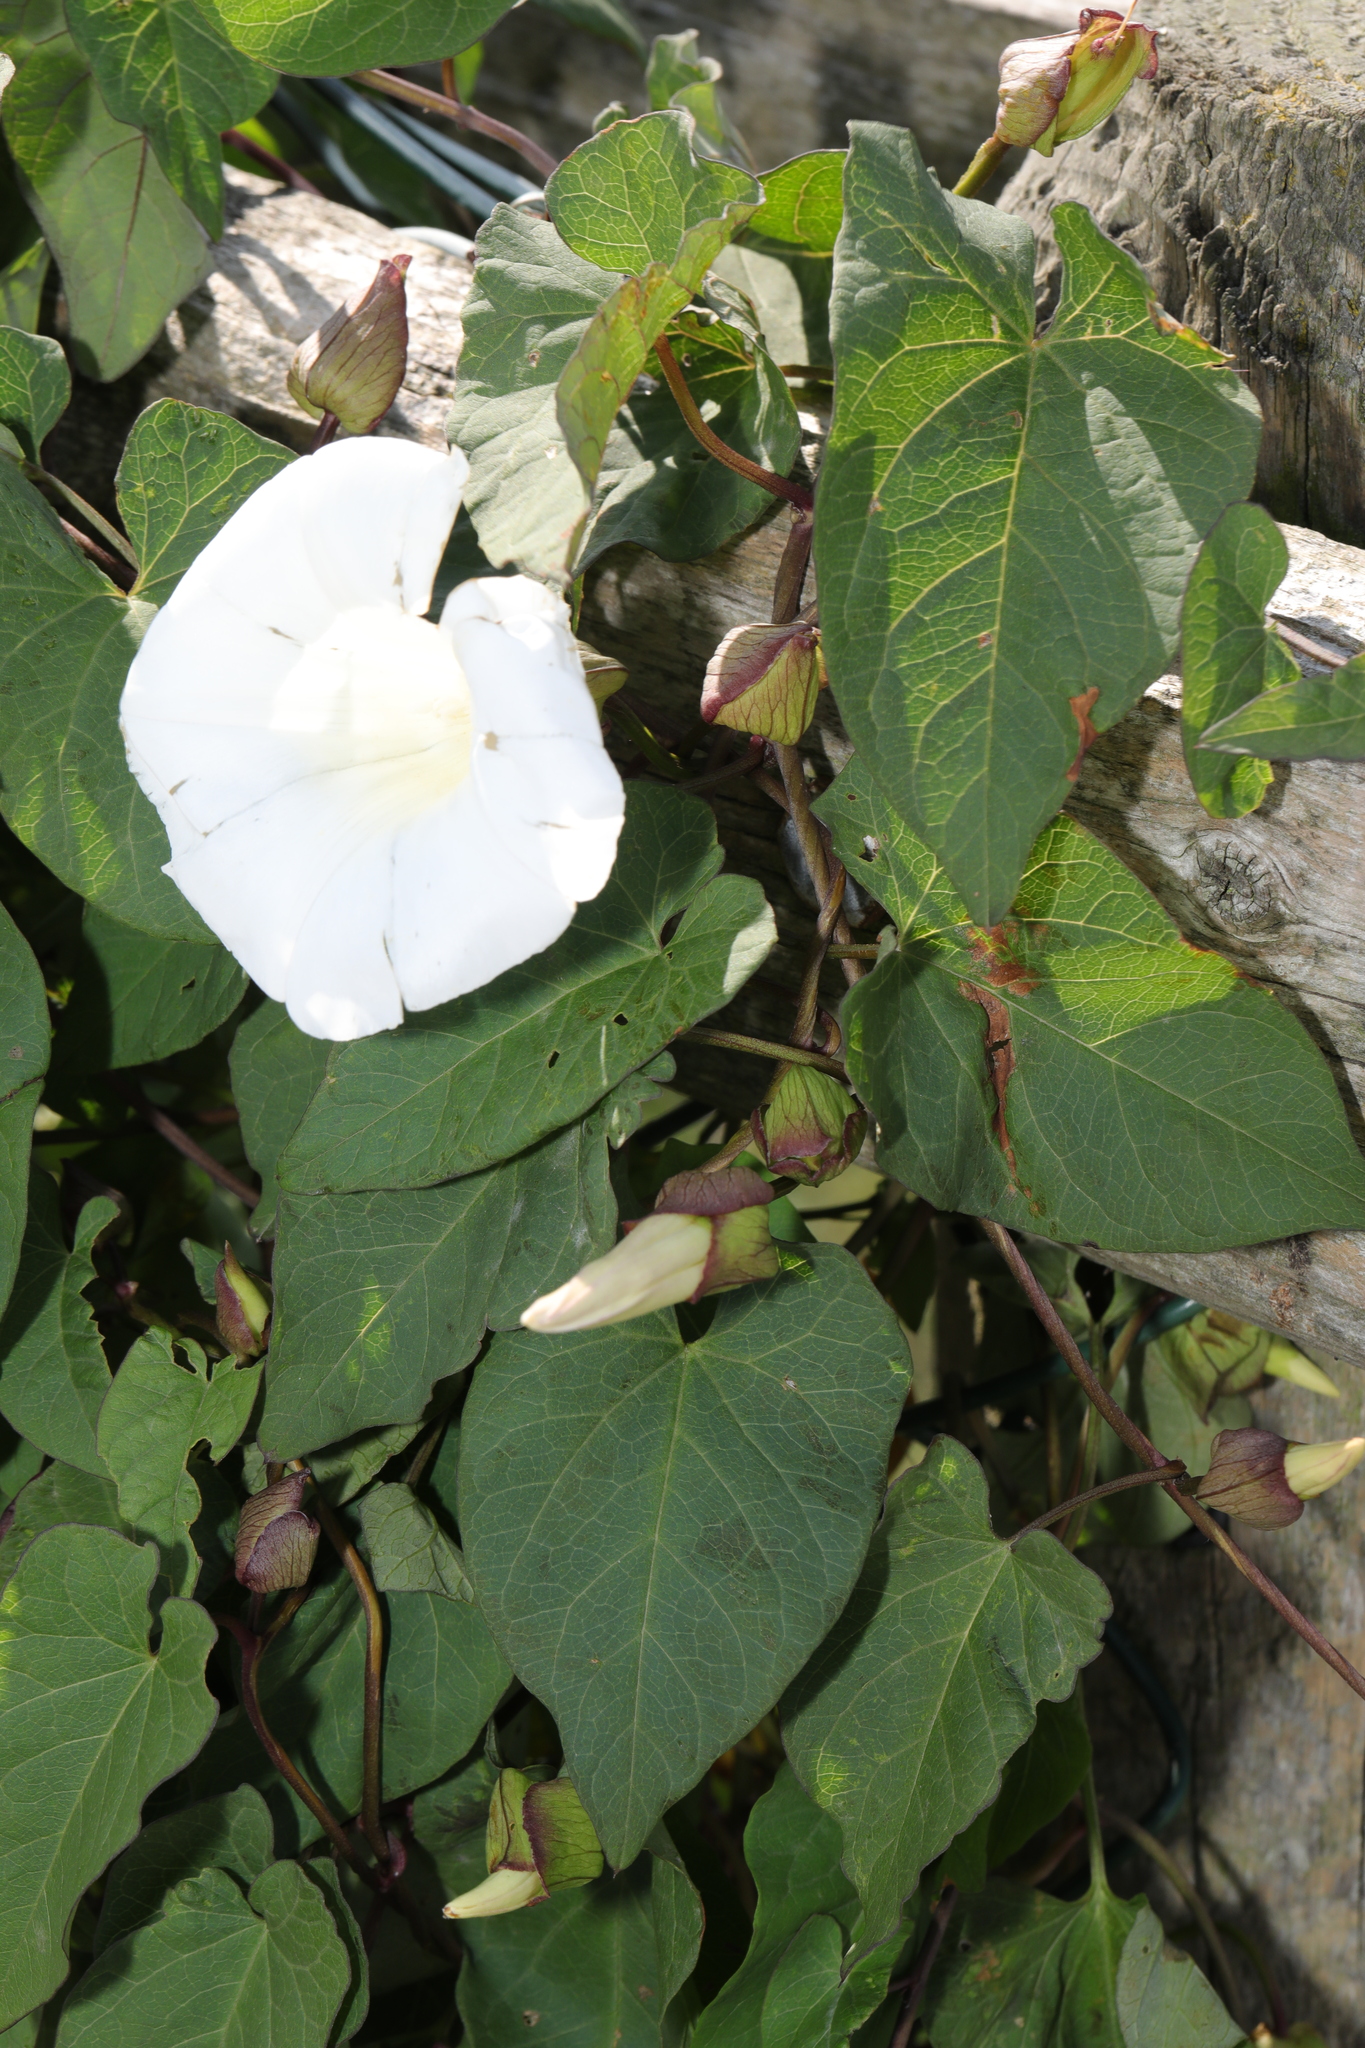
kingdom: Plantae
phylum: Tracheophyta
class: Magnoliopsida
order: Solanales
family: Convolvulaceae
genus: Calystegia
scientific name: Calystegia silvatica
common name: Large bindweed
